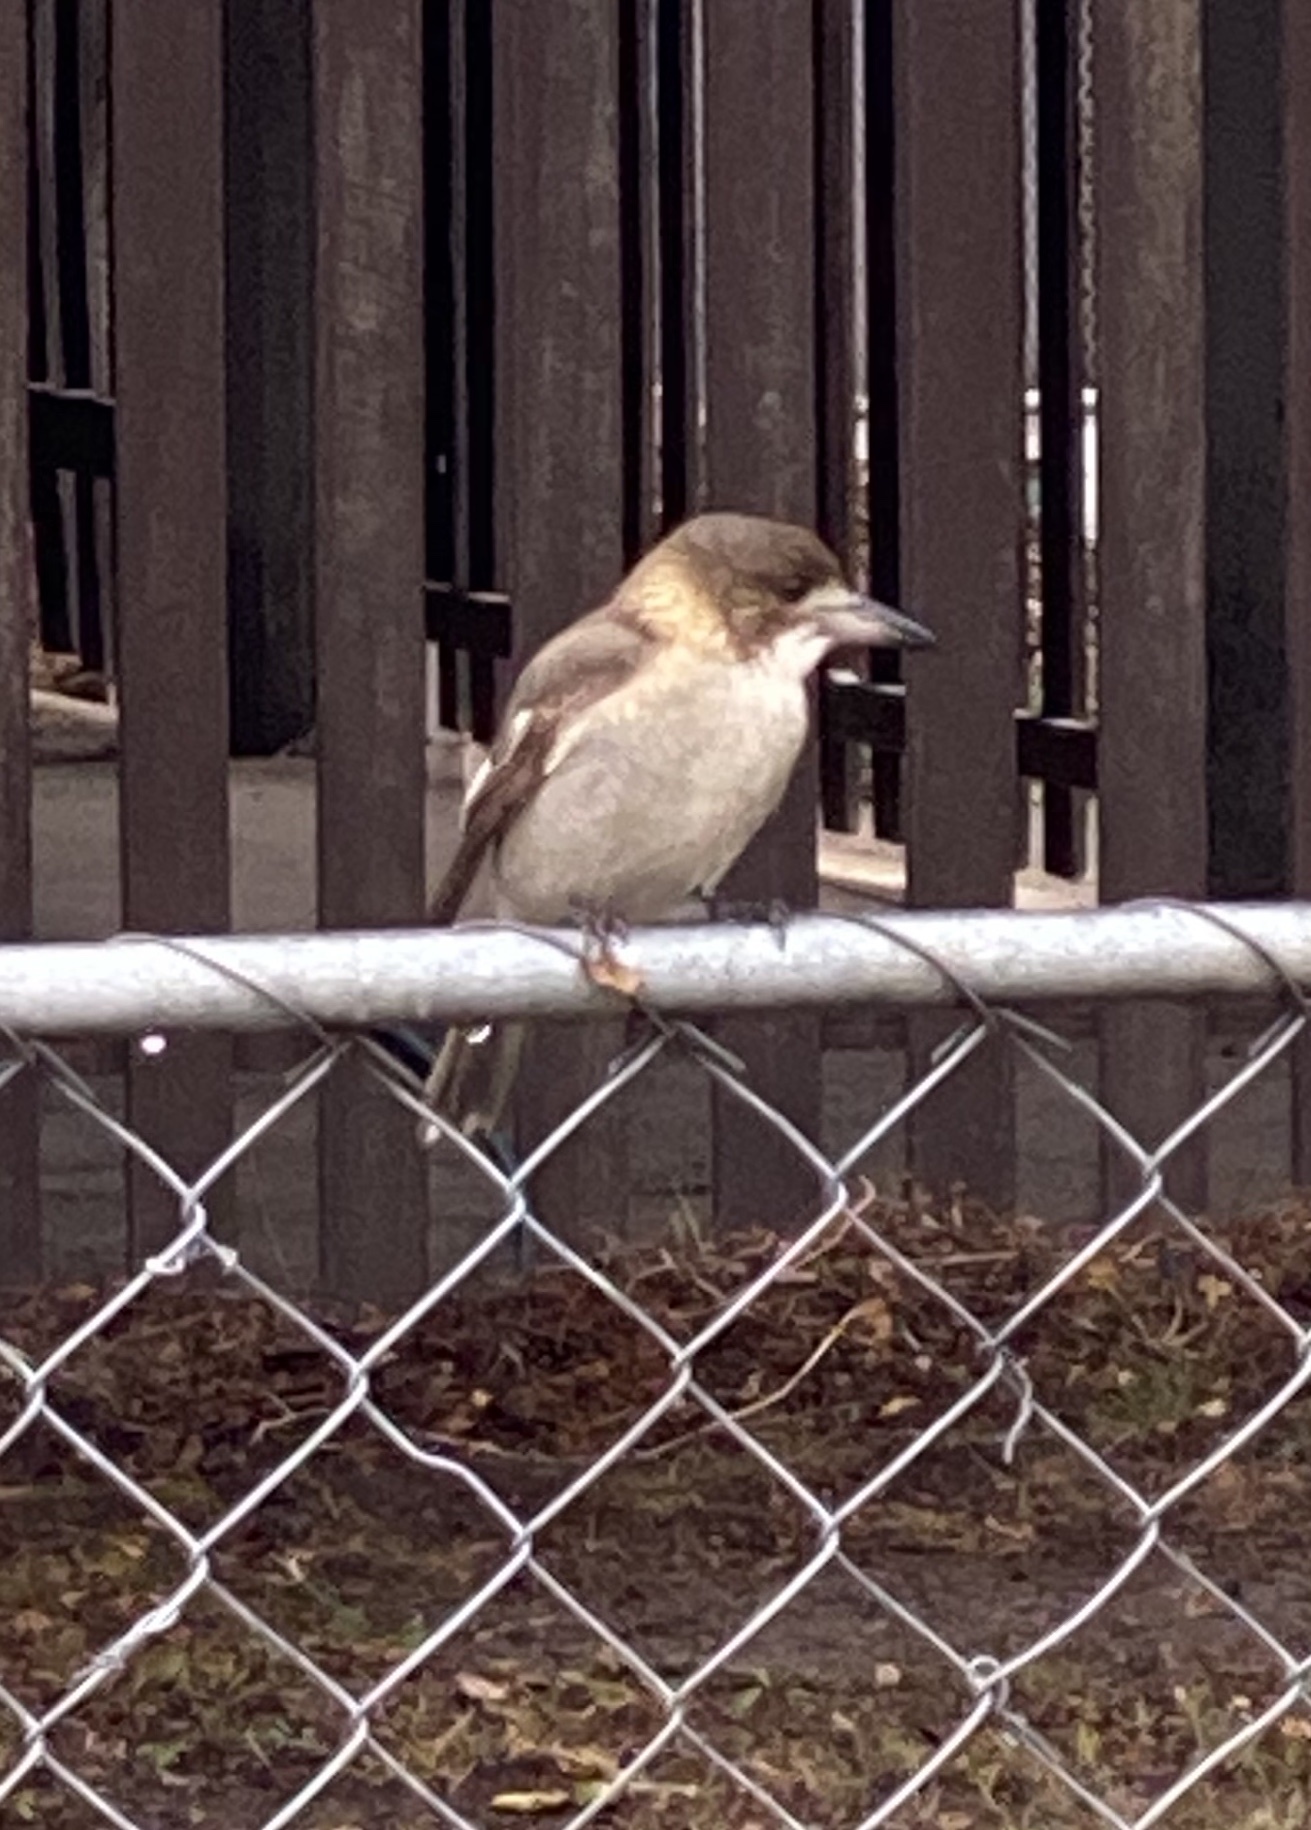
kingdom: Animalia
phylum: Chordata
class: Aves
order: Passeriformes
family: Cracticidae
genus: Cracticus
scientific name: Cracticus torquatus
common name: Grey butcherbird
